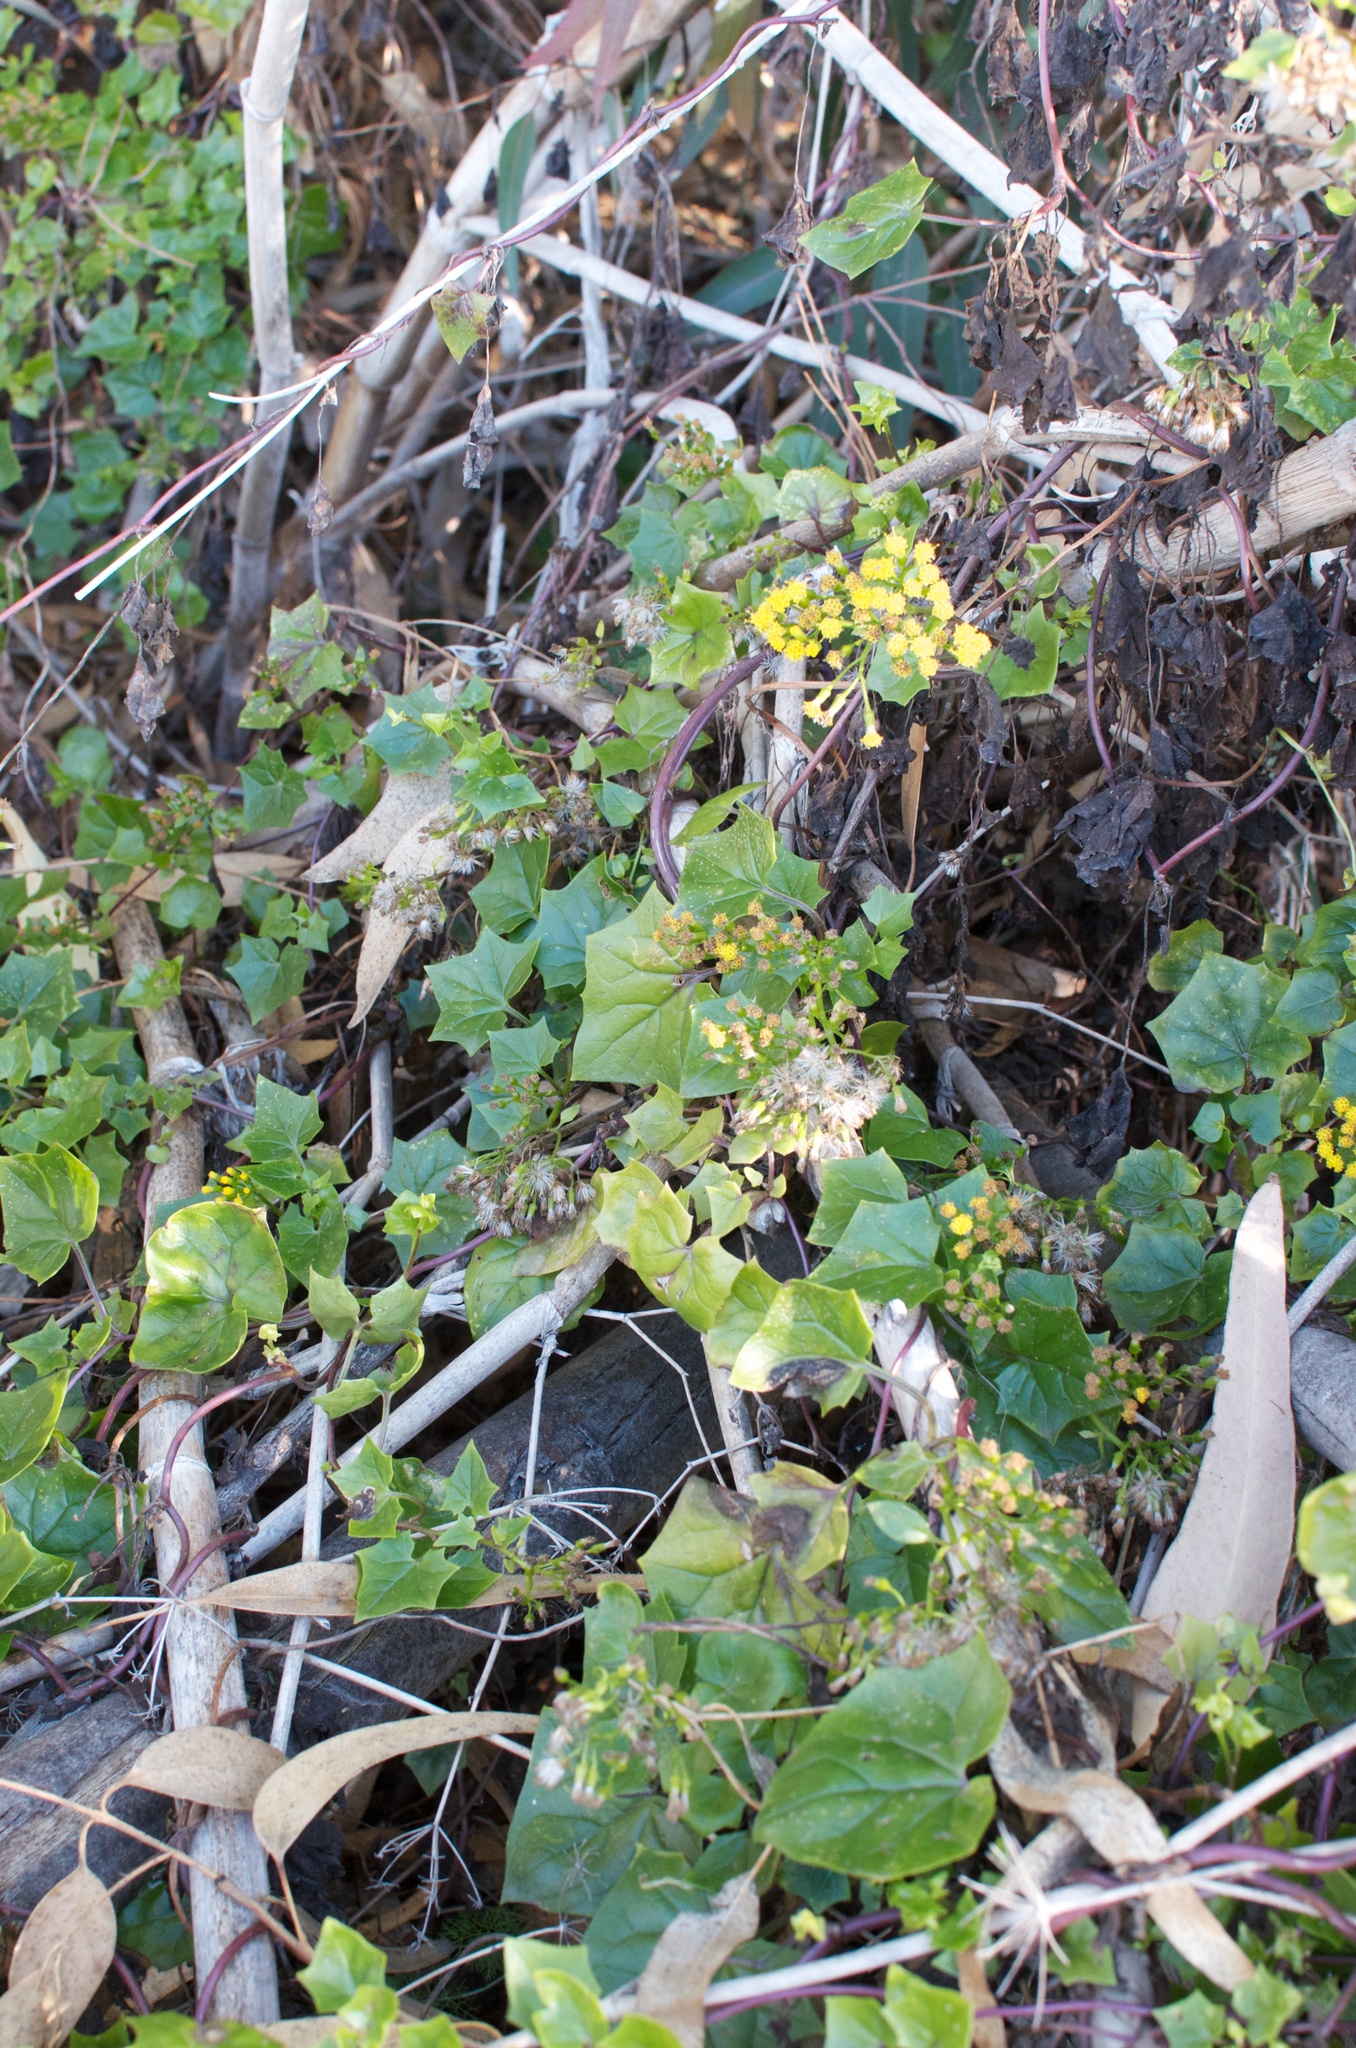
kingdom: Plantae
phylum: Tracheophyta
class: Magnoliopsida
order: Asterales
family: Asteraceae
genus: Delairea
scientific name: Delairea odorata
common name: Cape-ivy
